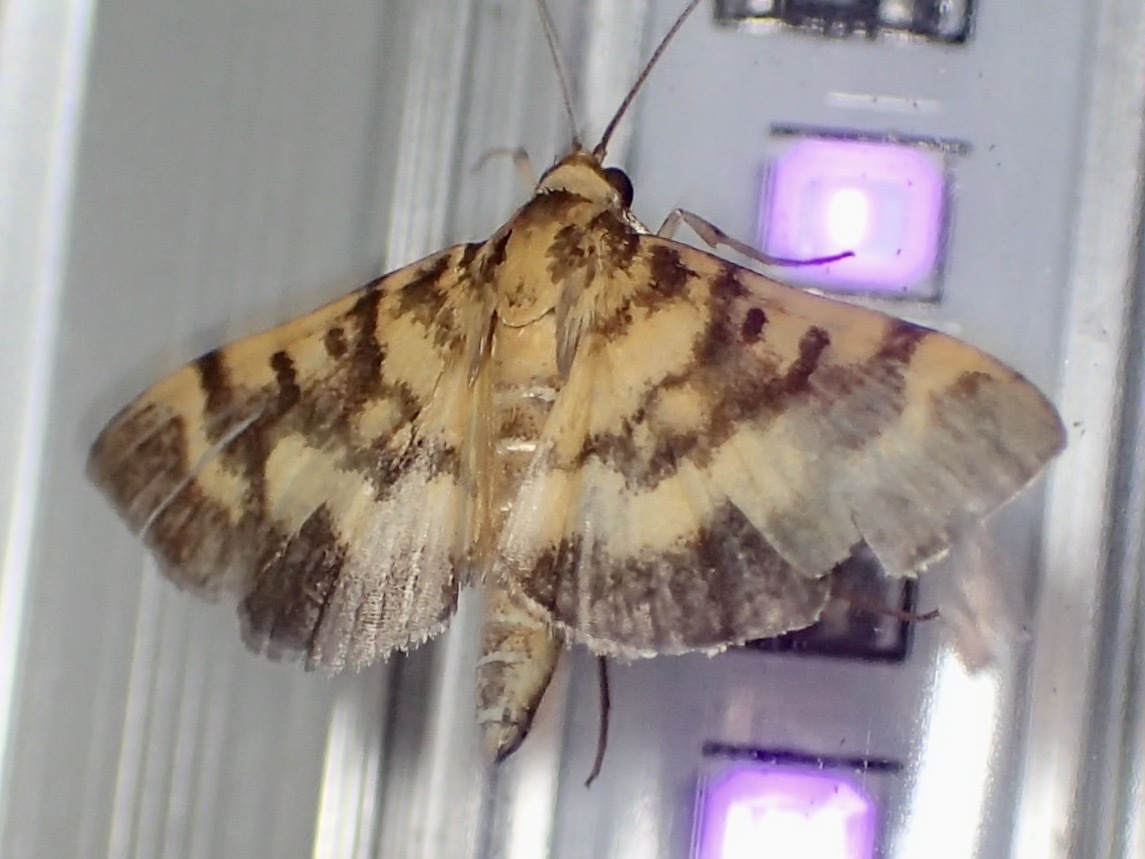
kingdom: Animalia
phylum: Arthropoda
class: Insecta
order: Lepidoptera
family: Crambidae
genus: Omiodes
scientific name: Omiodes diemenalis
